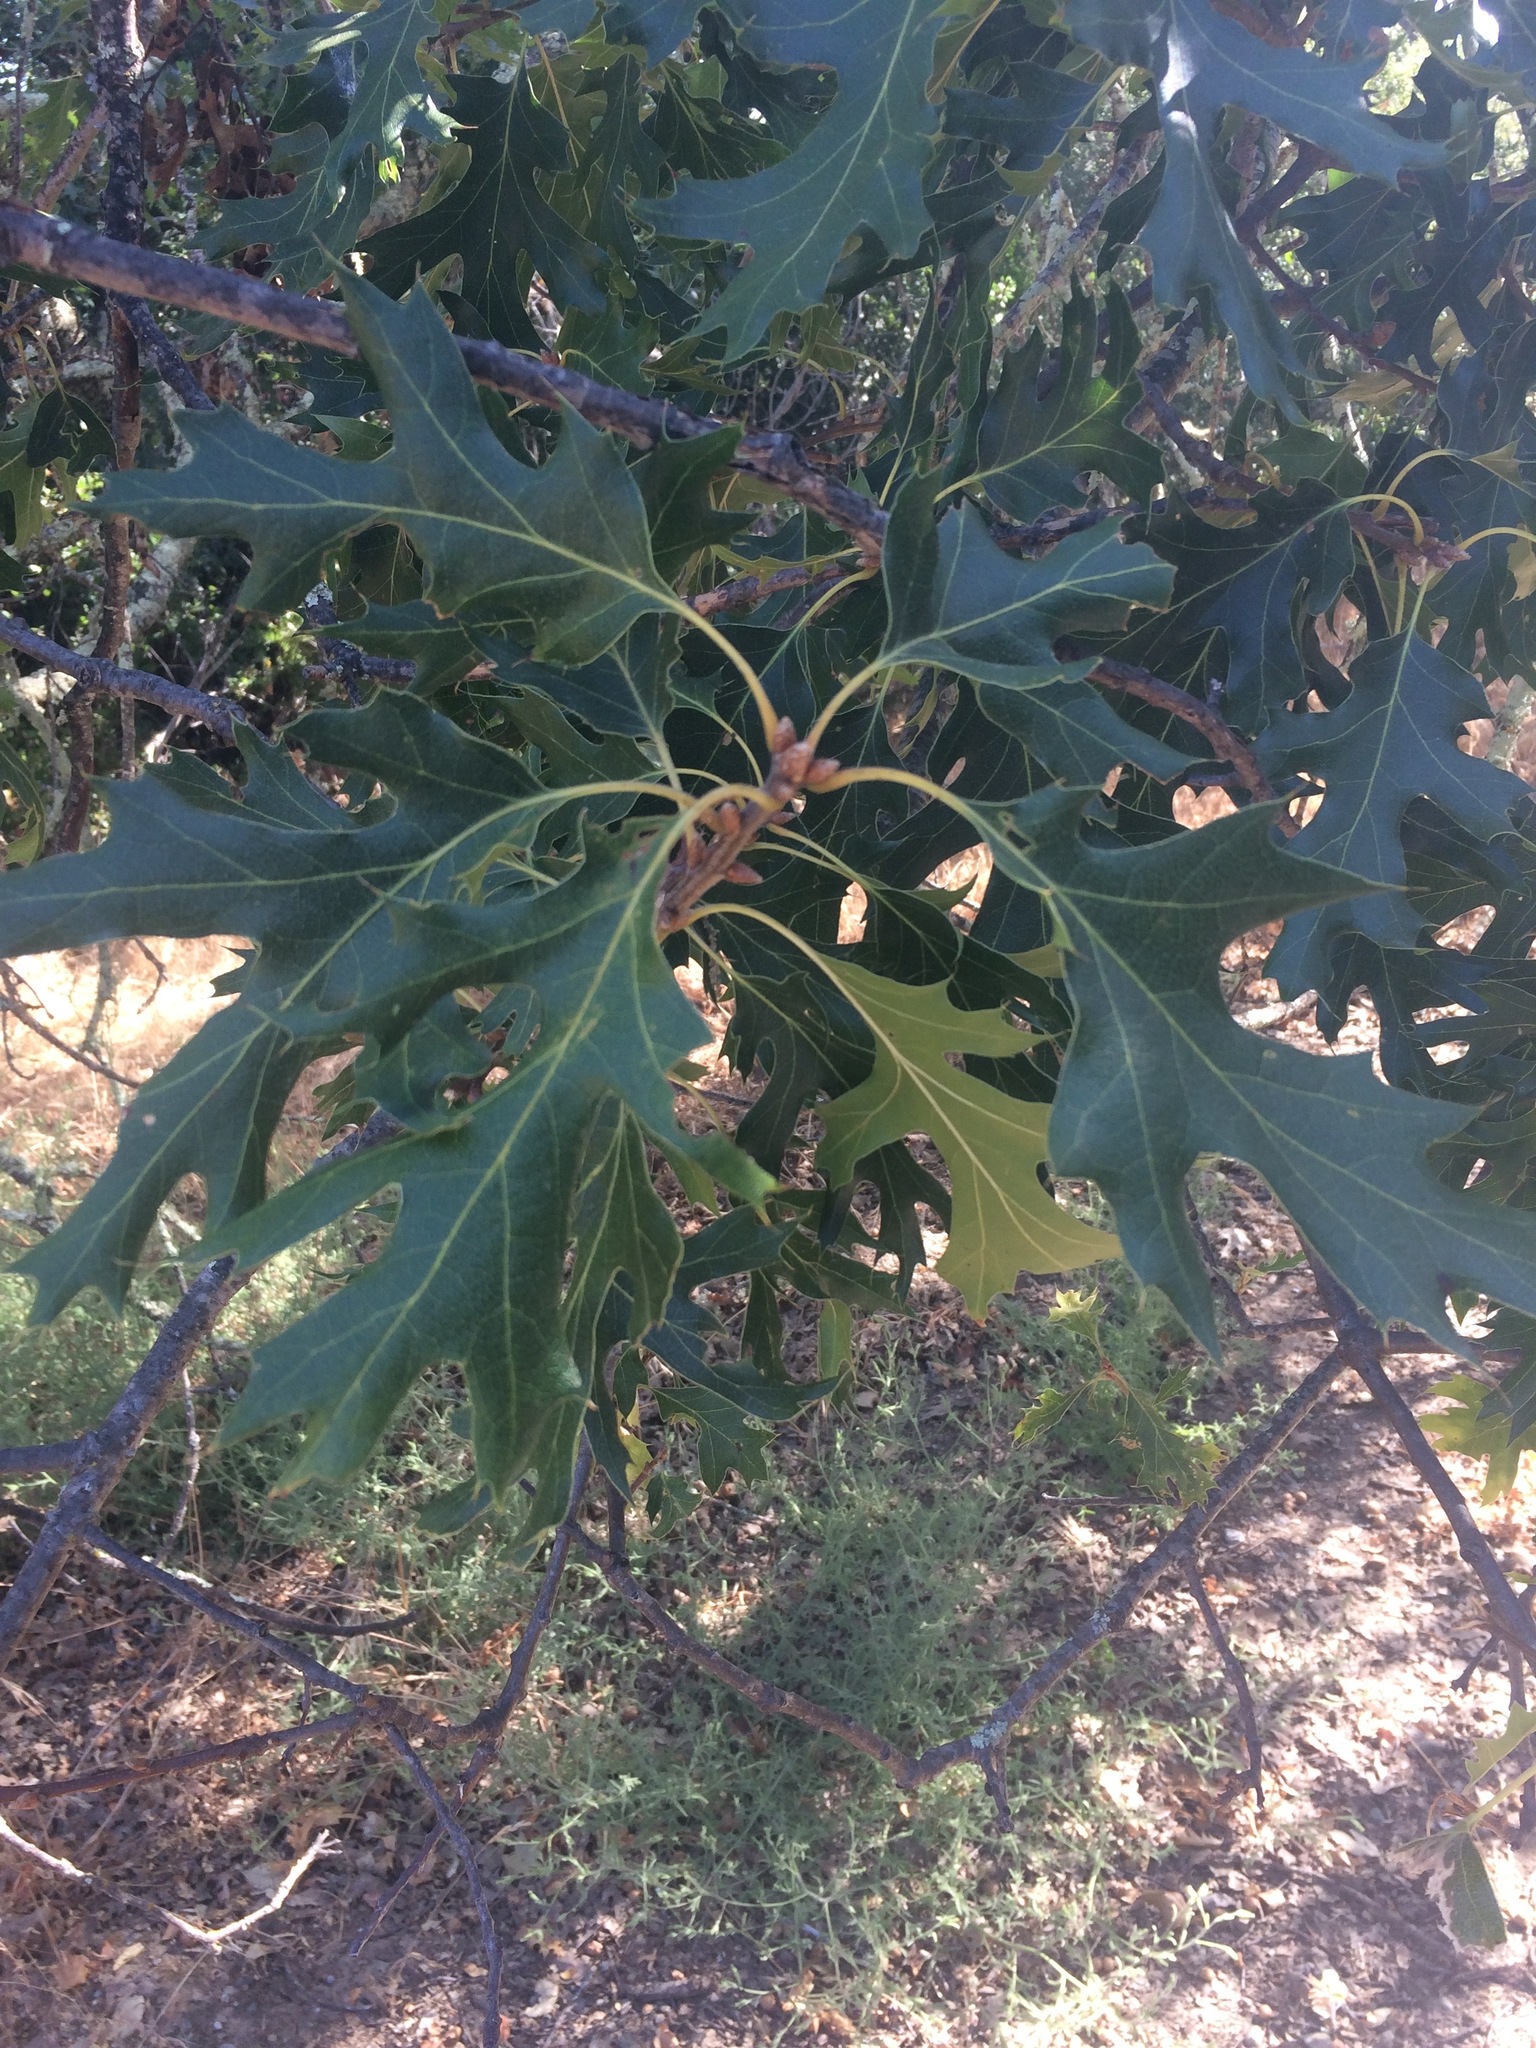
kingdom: Plantae
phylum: Tracheophyta
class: Magnoliopsida
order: Fagales
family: Fagaceae
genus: Quercus
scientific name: Quercus kelloggii
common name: California black oak
